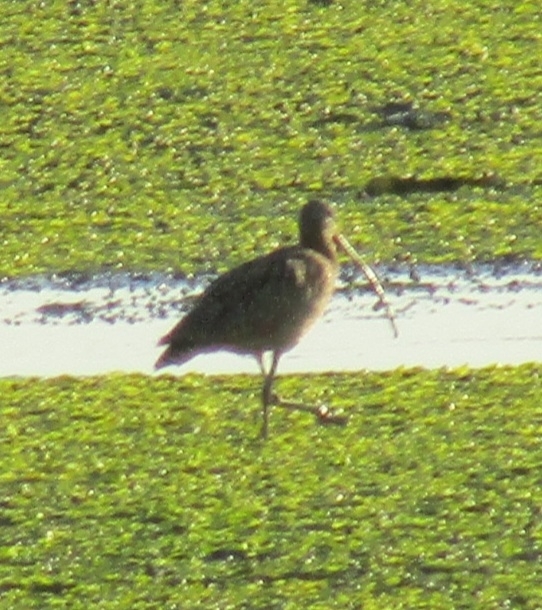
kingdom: Animalia
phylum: Chordata
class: Aves
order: Charadriiformes
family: Scolopacidae
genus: Numenius
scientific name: Numenius americanus
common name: Long-billed curlew
